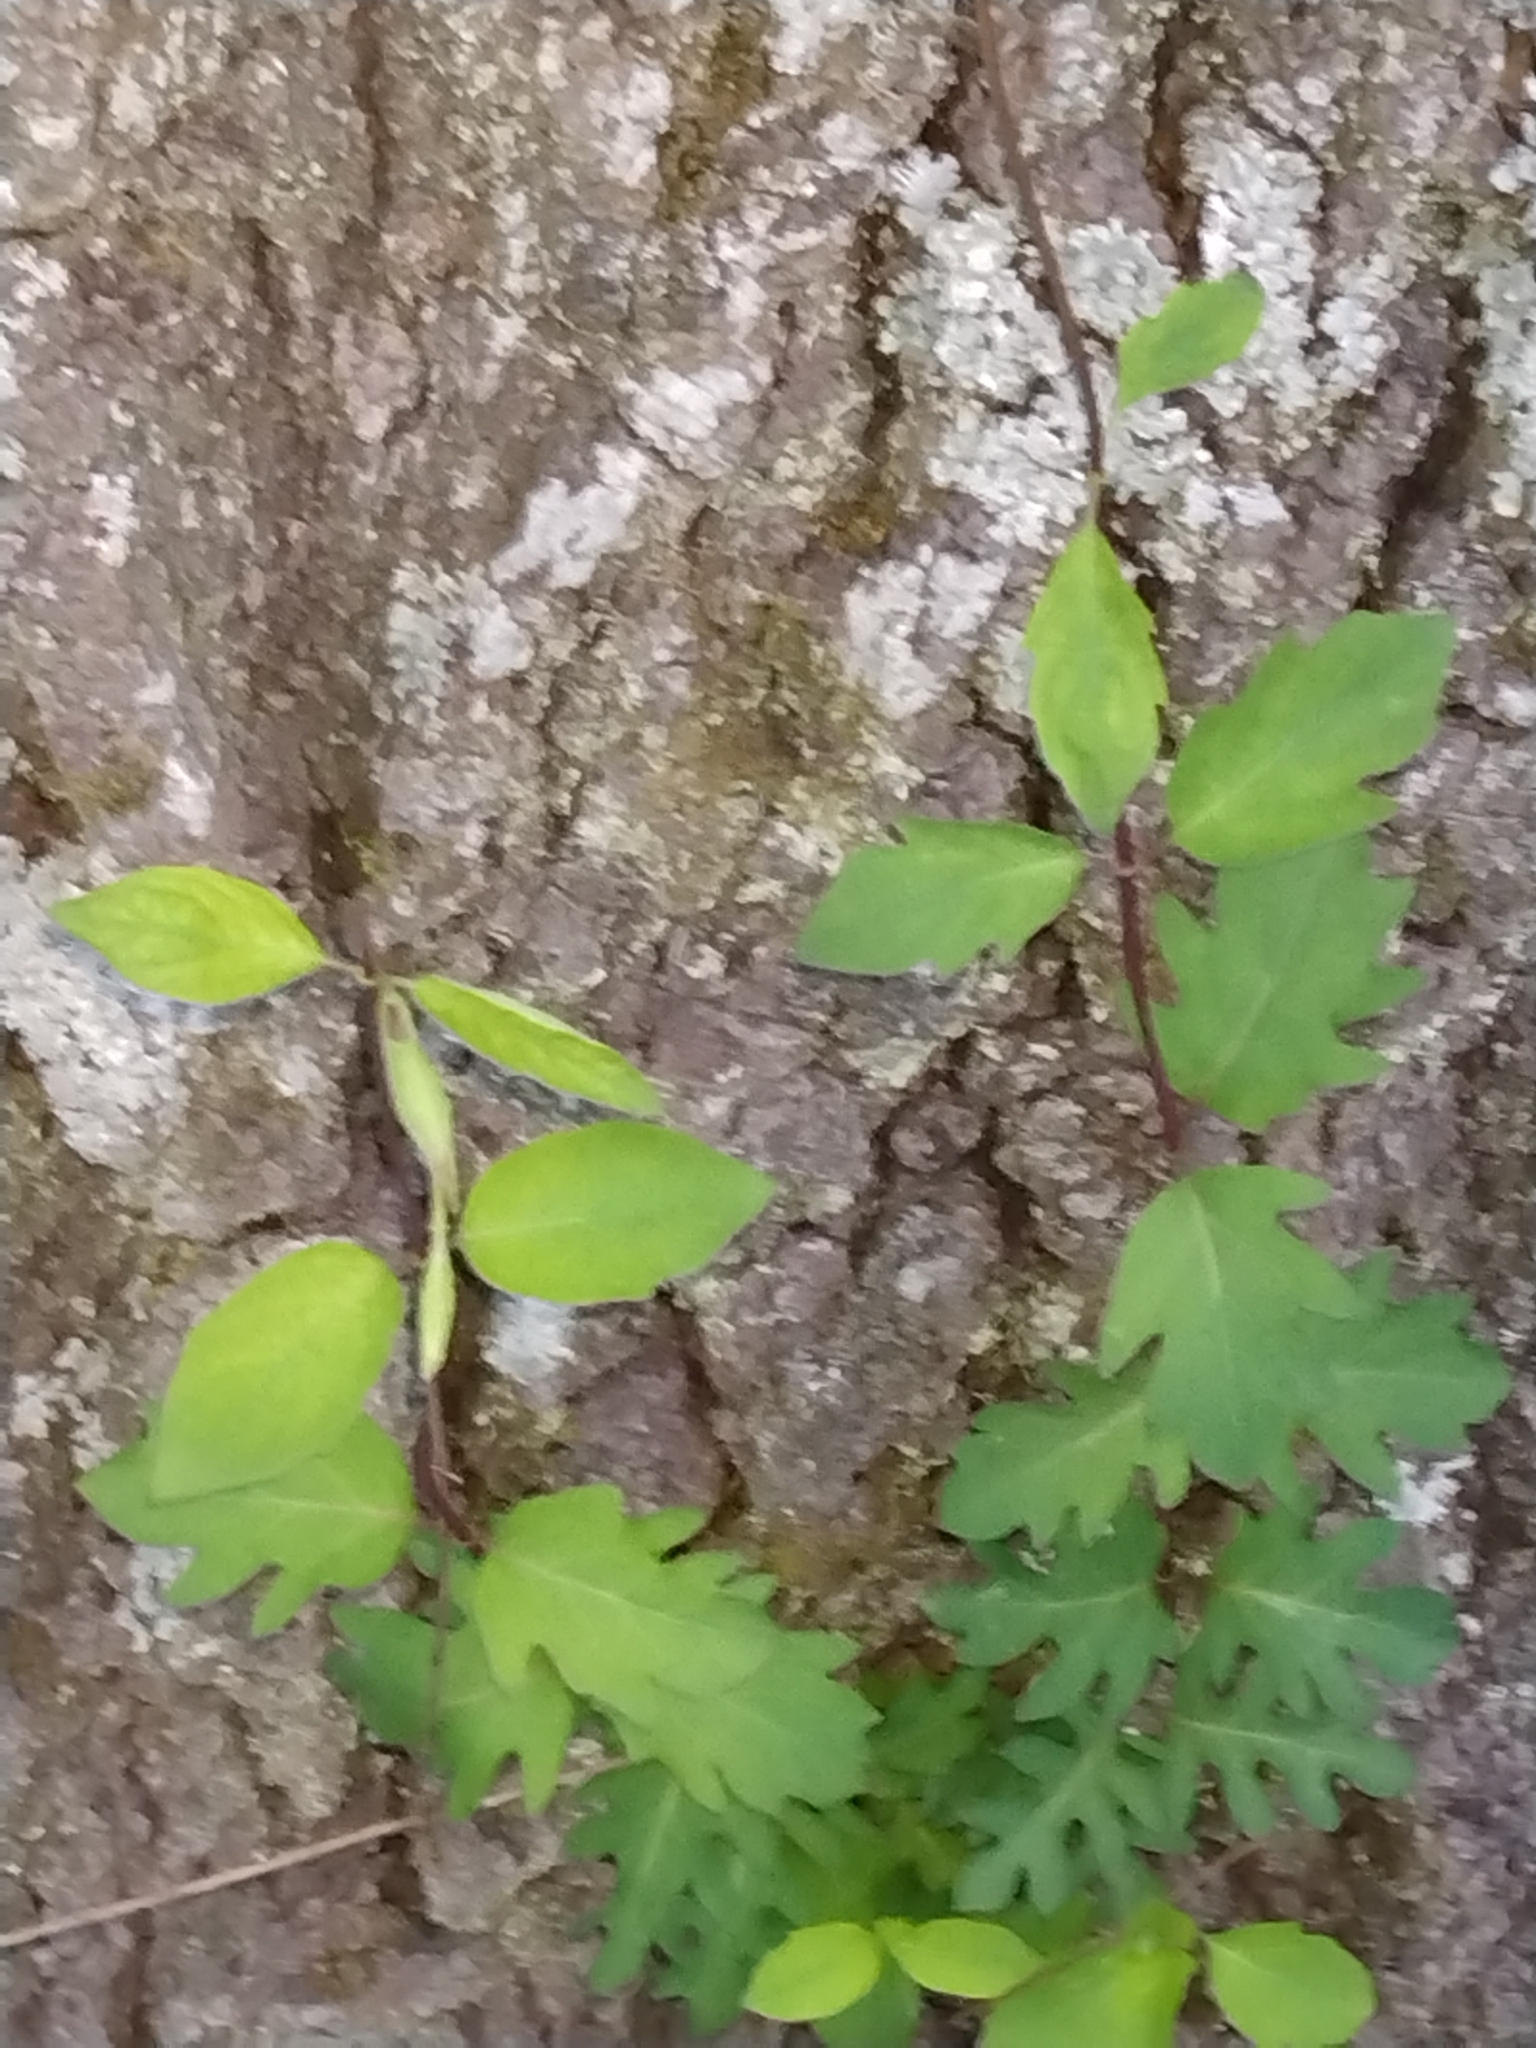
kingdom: Plantae
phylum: Tracheophyta
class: Magnoliopsida
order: Dipsacales
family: Caprifoliaceae
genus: Lonicera
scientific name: Lonicera japonica
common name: Japanese honeysuckle
